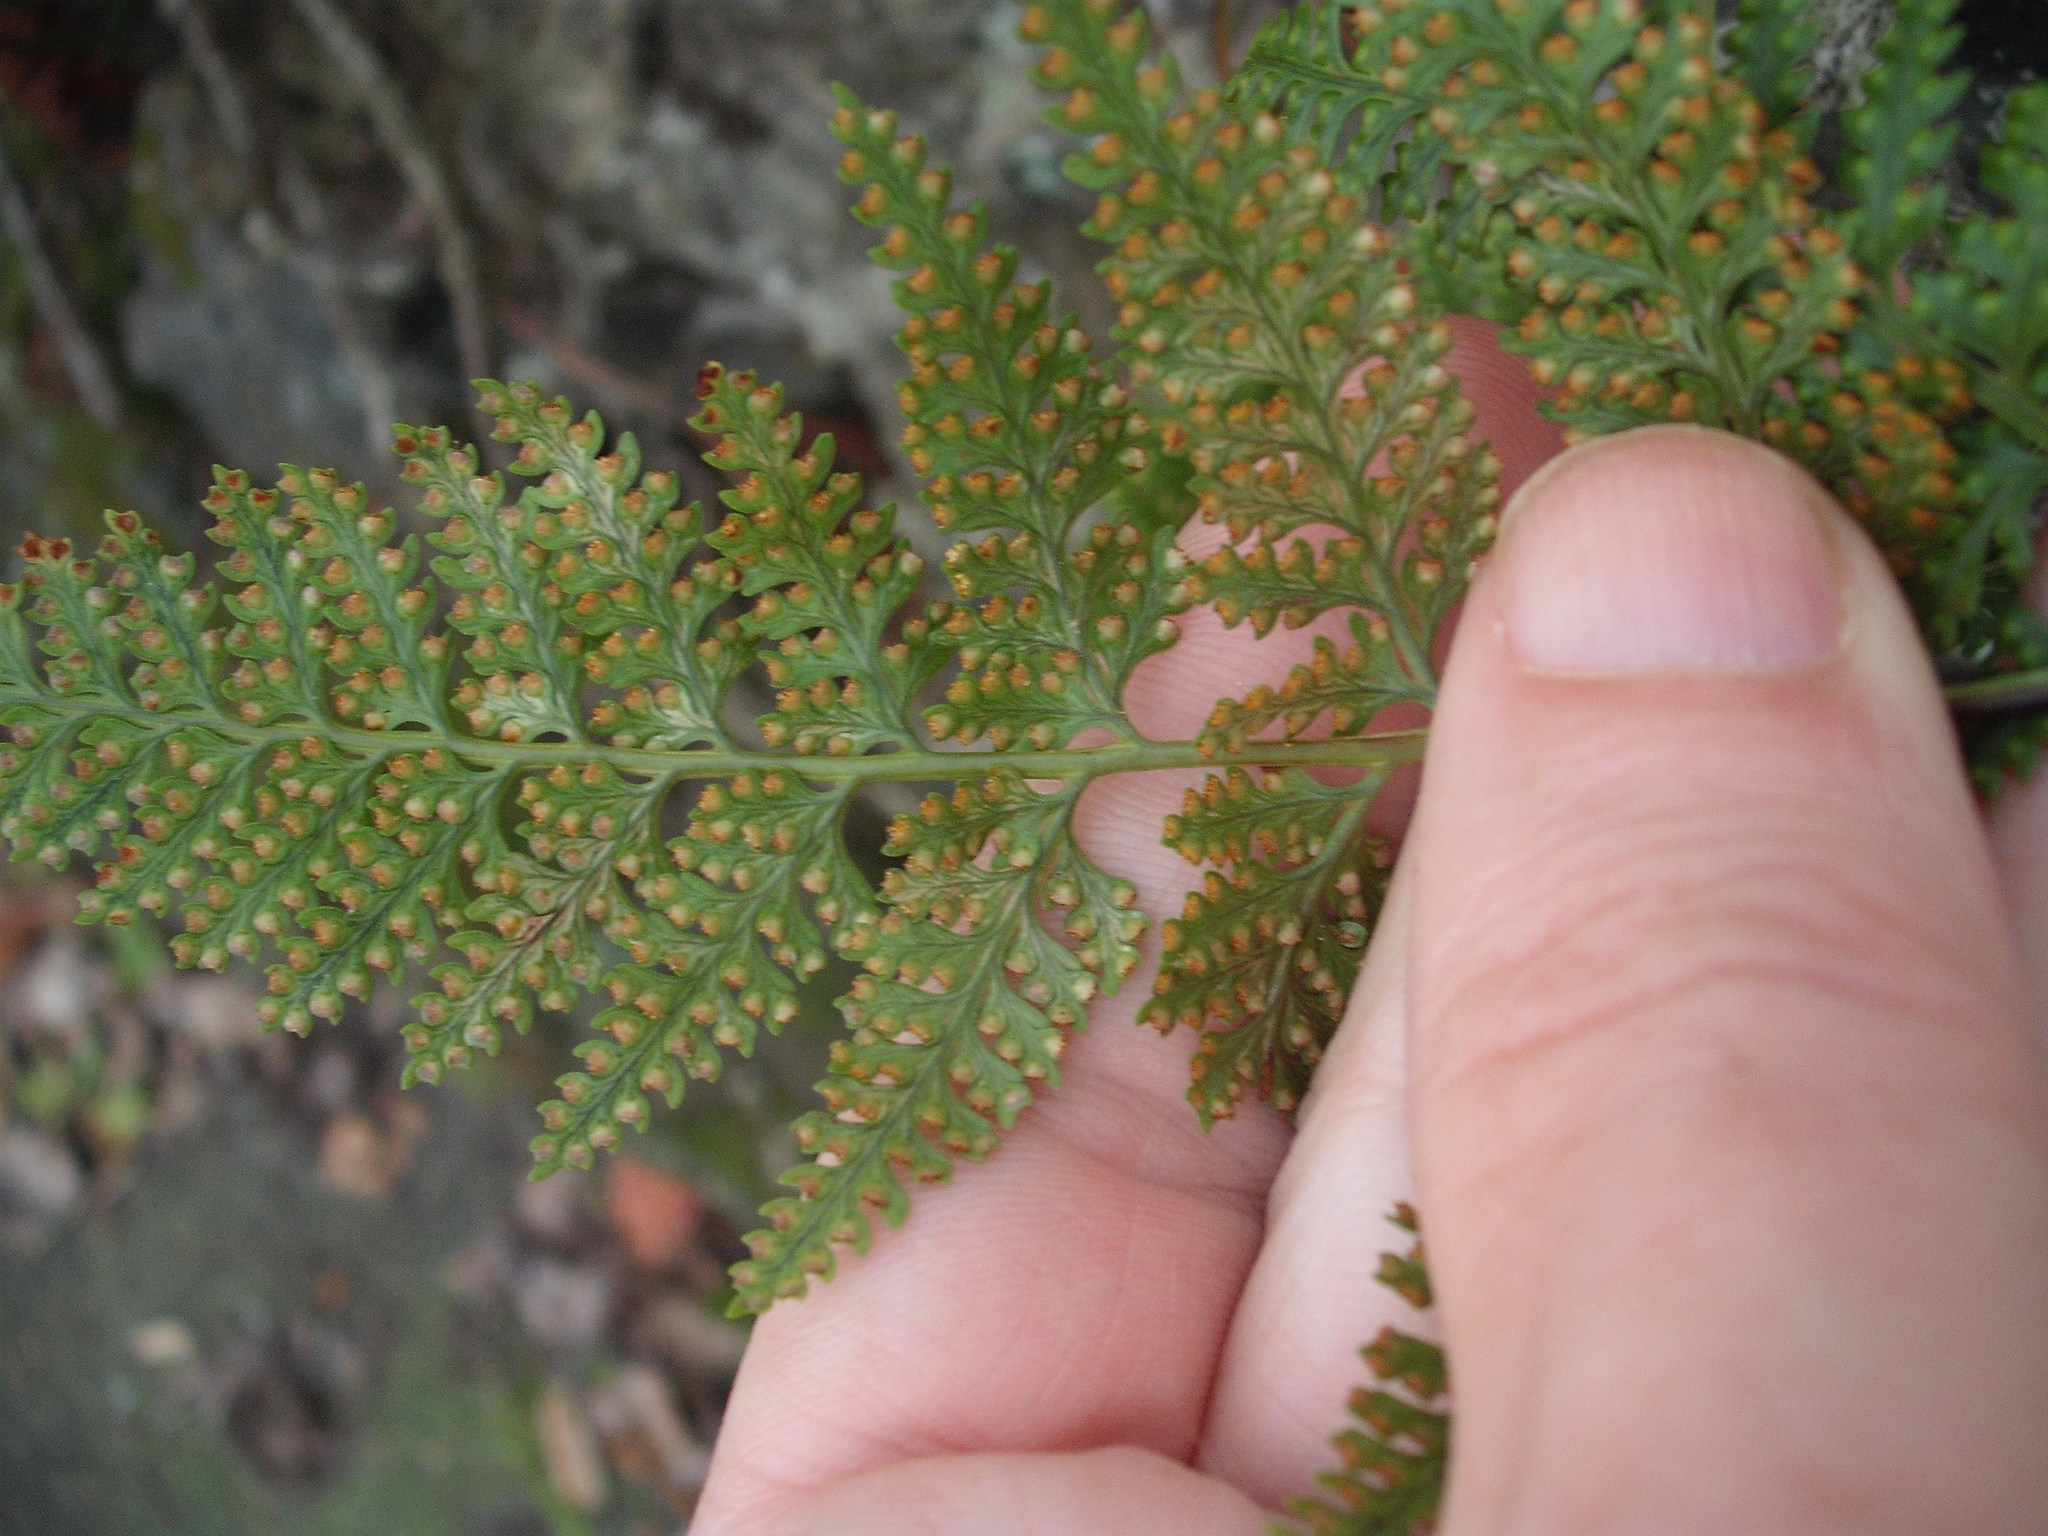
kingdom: Plantae
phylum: Tracheophyta
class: Polypodiopsida
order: Polypodiales
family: Davalliaceae
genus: Davallia
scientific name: Davallia griffithiana
